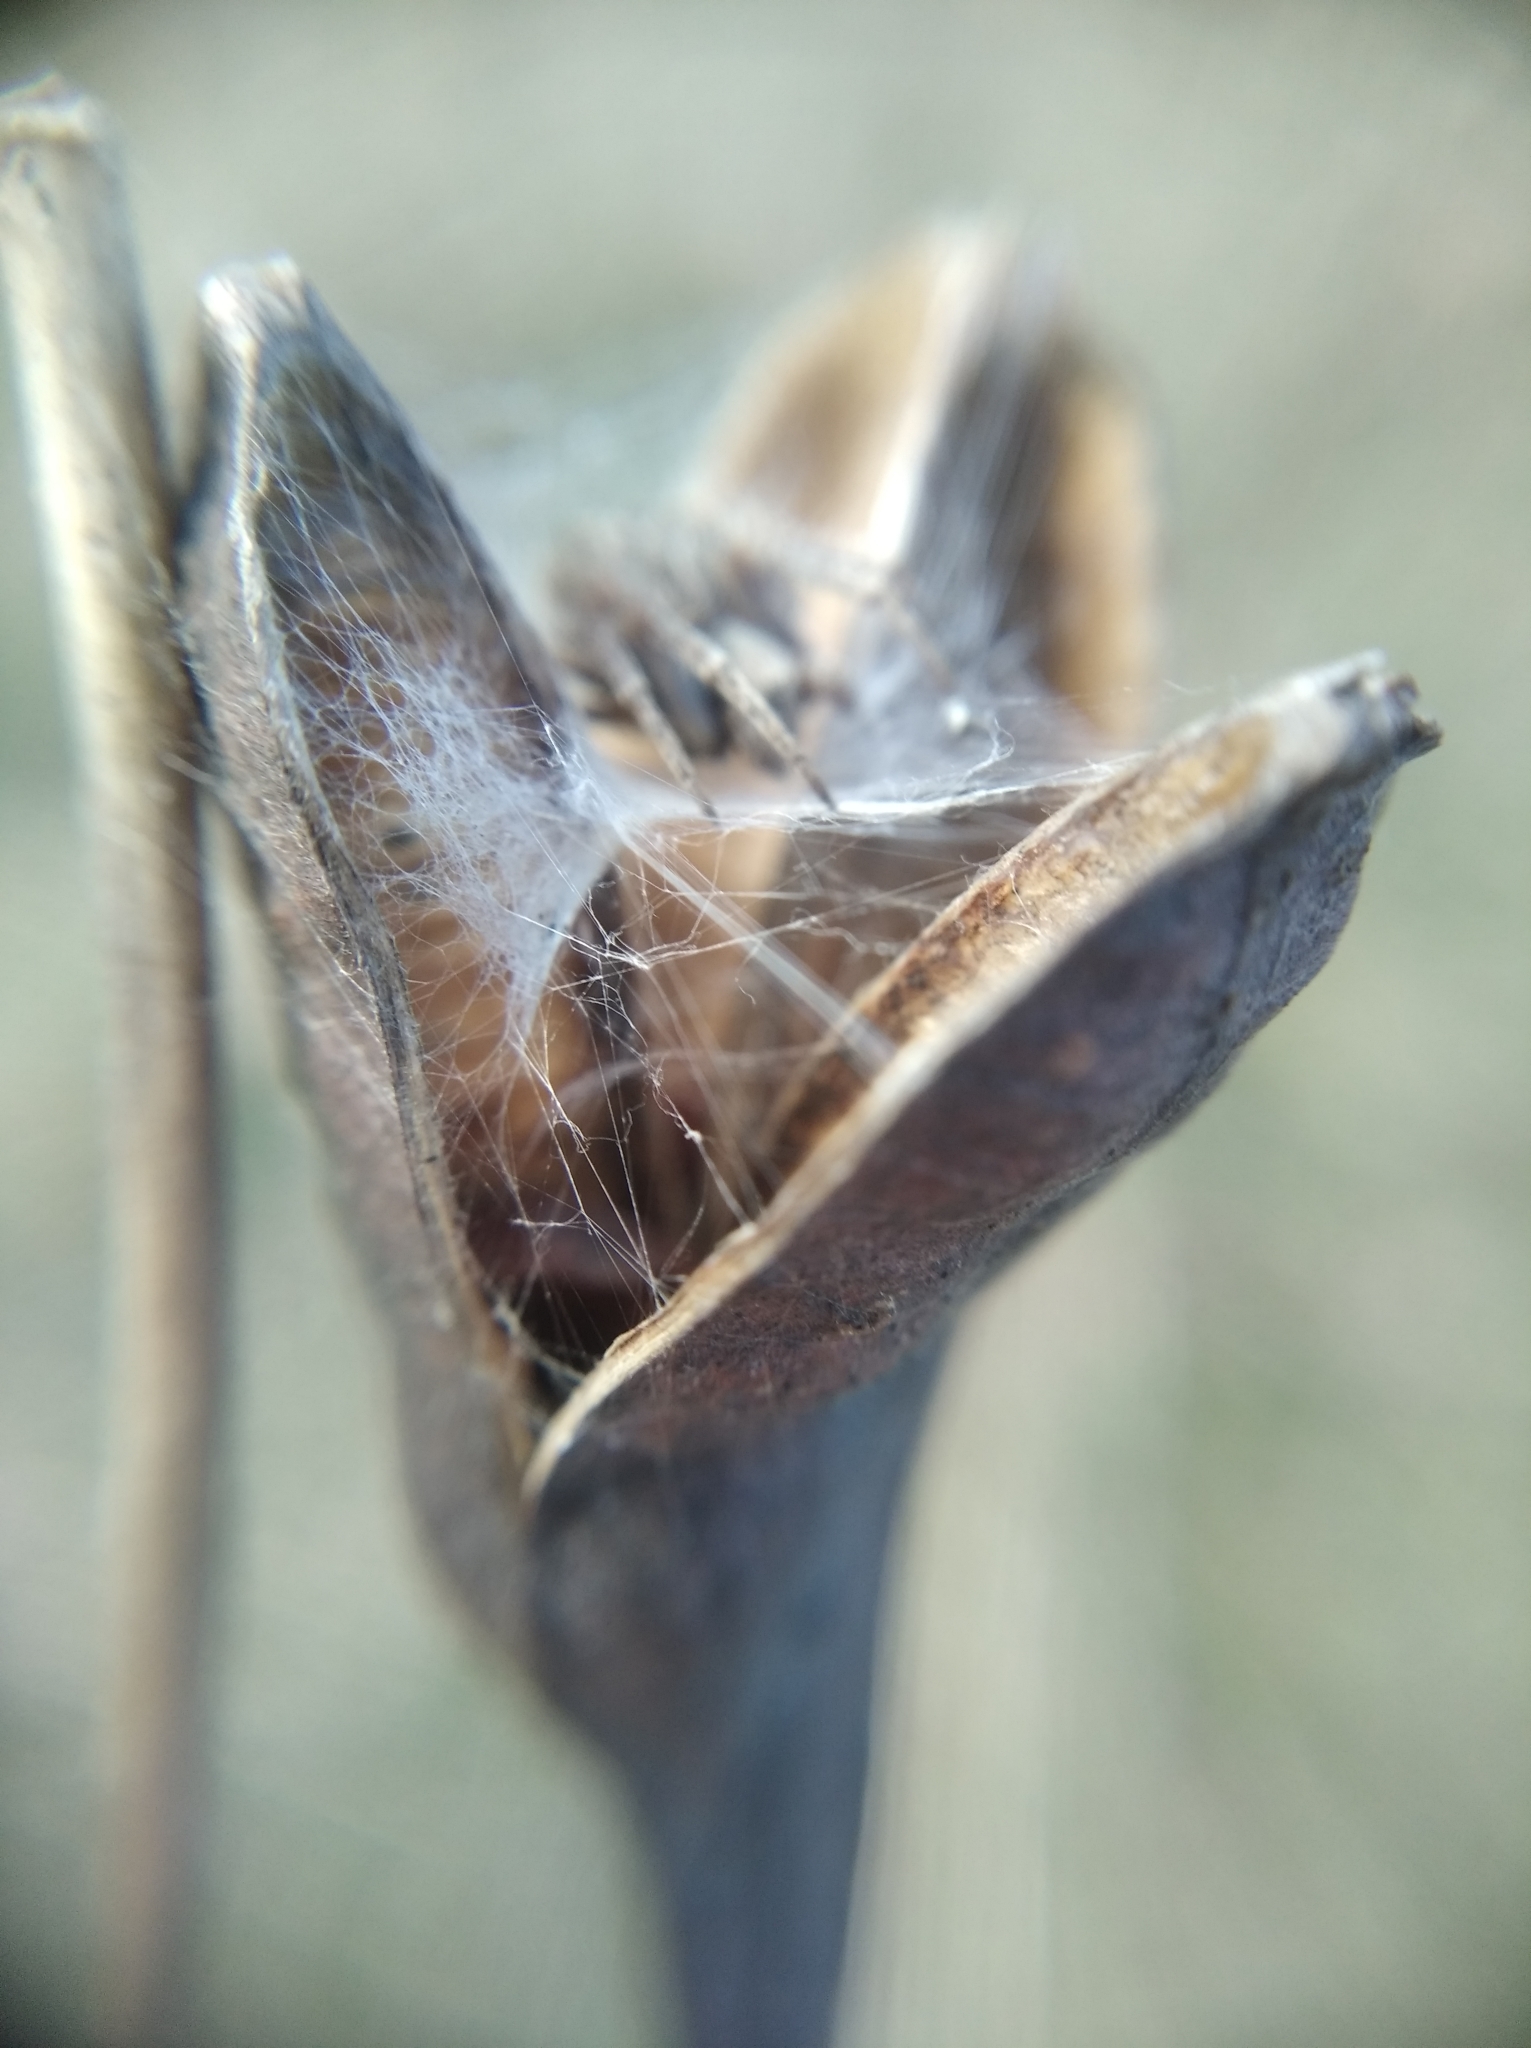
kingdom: Plantae
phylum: Tracheophyta
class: Liliopsida
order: Asparagales
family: Iridaceae
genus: Iris
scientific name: Iris sibirica
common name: Siberian iris
